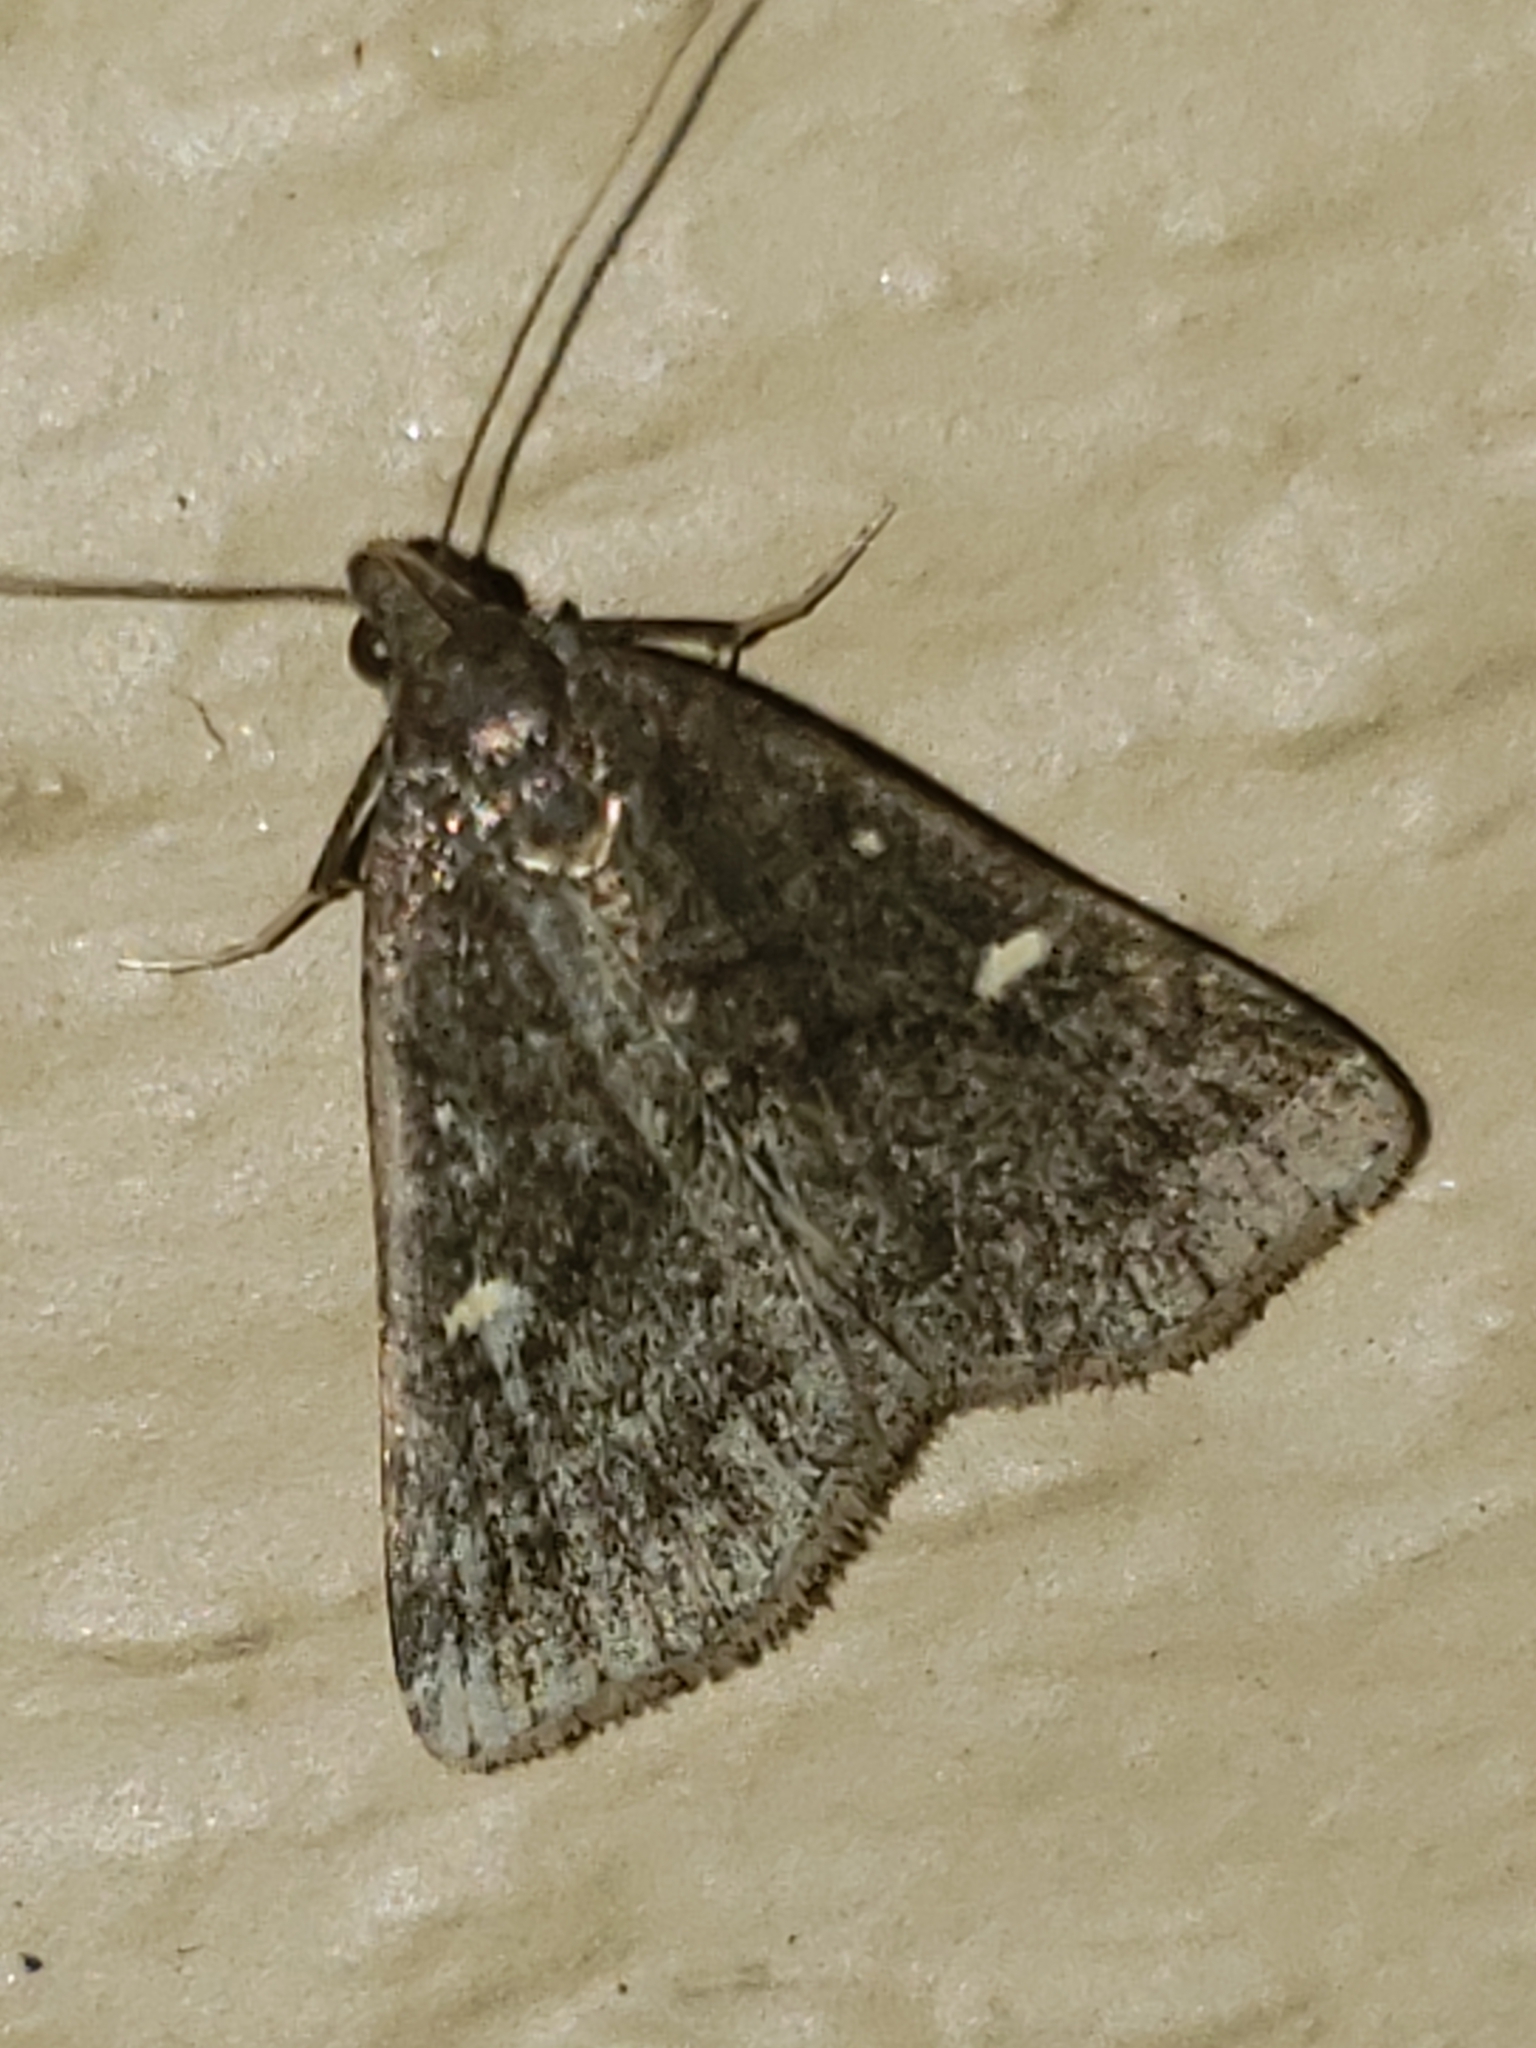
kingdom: Animalia
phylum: Arthropoda
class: Insecta
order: Lepidoptera
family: Erebidae
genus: Tetanolita
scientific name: Tetanolita mynesalis
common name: Smoky tetanolita moth
